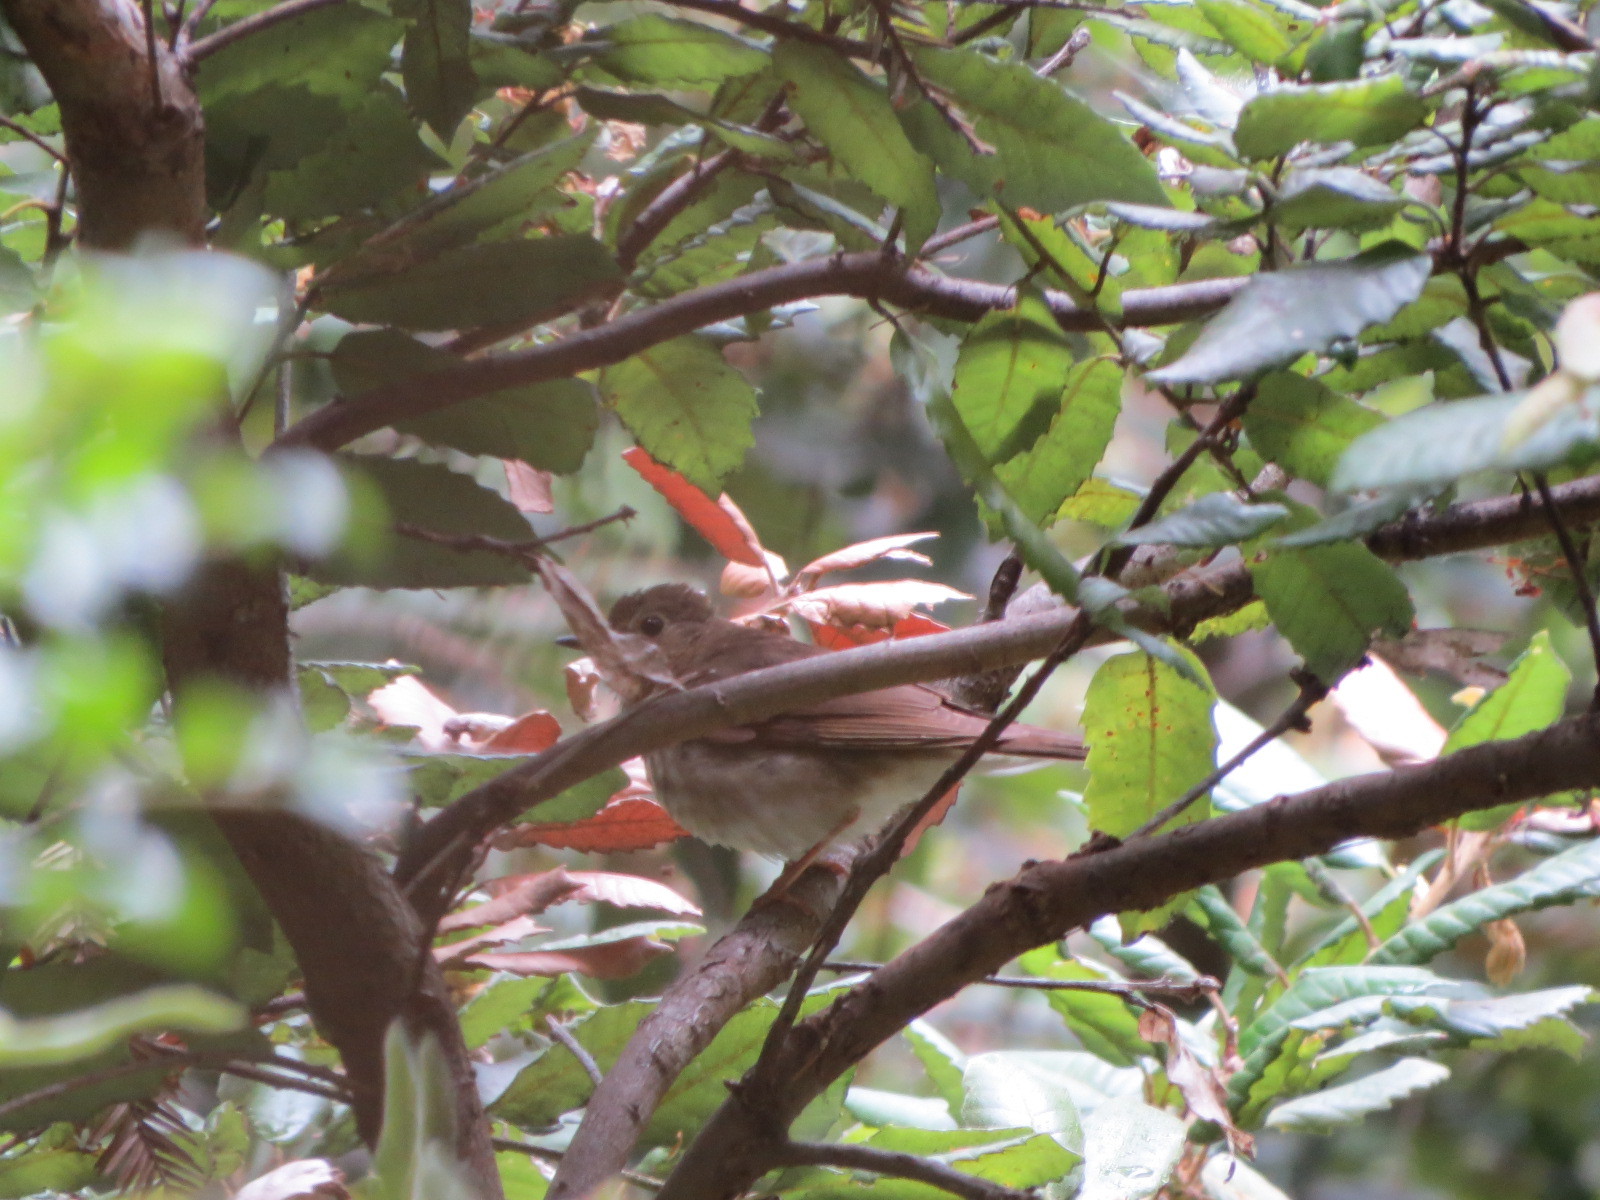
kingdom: Animalia
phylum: Chordata
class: Aves
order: Passeriformes
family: Turdidae
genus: Catharus
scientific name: Catharus ustulatus
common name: Swainson's thrush
